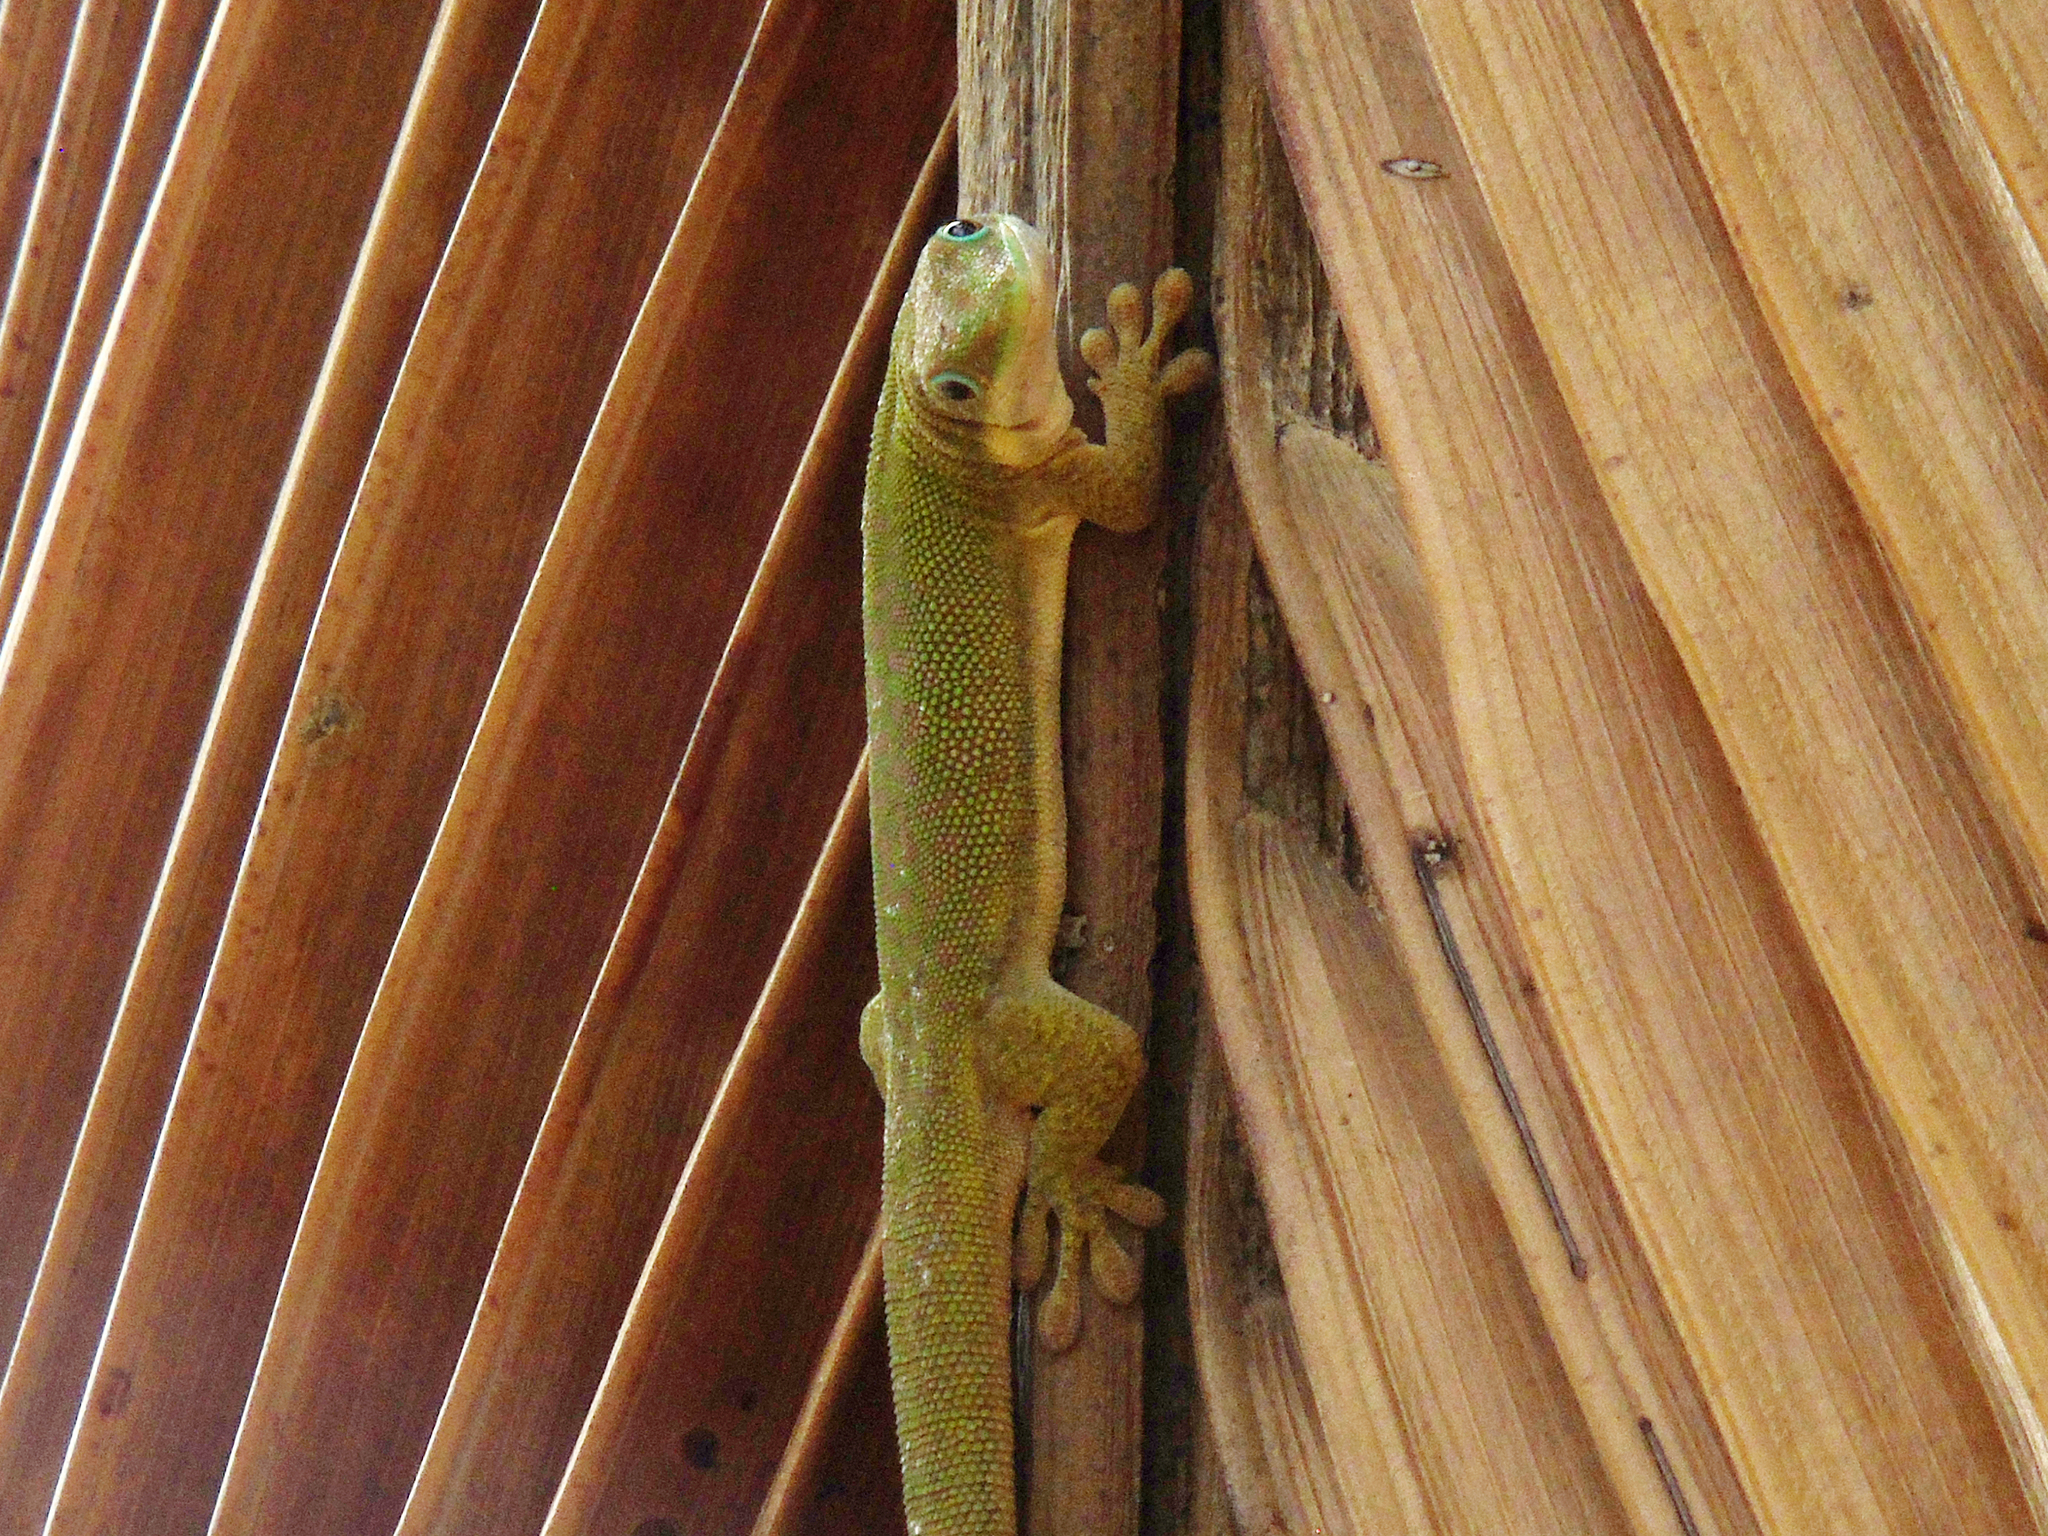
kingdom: Animalia
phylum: Chordata
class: Squamata
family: Gekkonidae
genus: Phelsuma
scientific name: Phelsuma dubia
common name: Zanzibar day gecko
